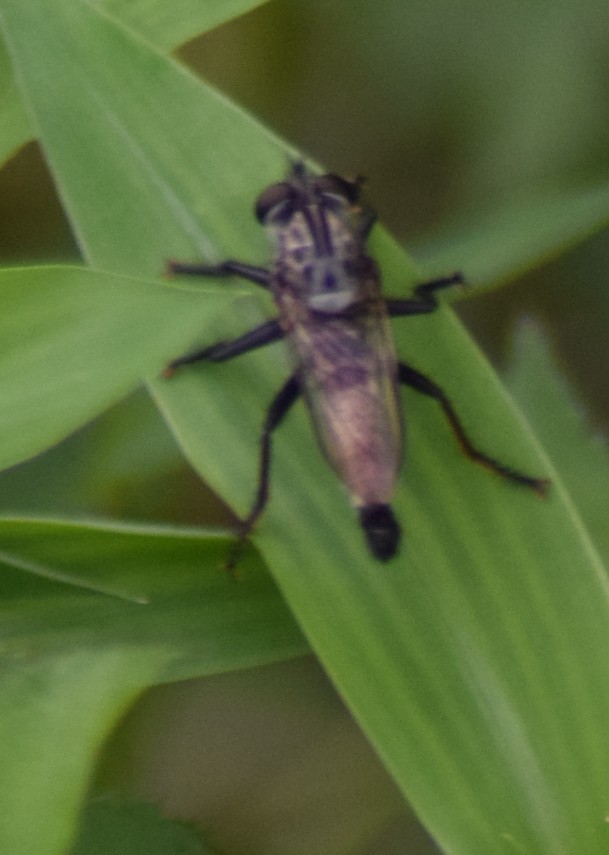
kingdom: Animalia
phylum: Arthropoda
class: Insecta
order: Diptera
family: Asilidae
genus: Efferia
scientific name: Efferia aestuans
